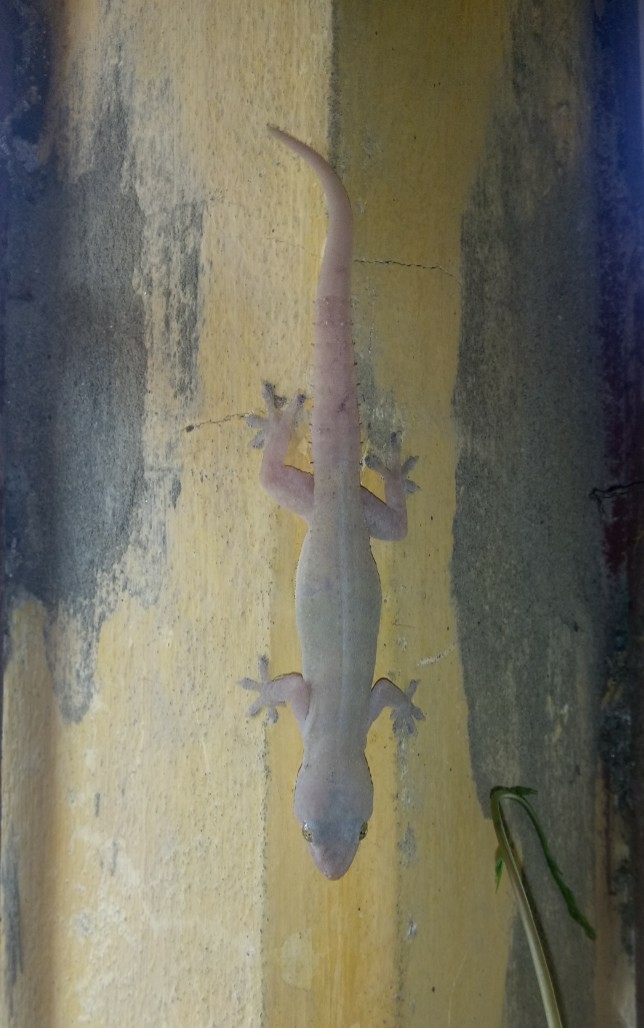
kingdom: Animalia
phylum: Chordata
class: Squamata
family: Gekkonidae
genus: Hemidactylus
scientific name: Hemidactylus frenatus
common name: Common house gecko
